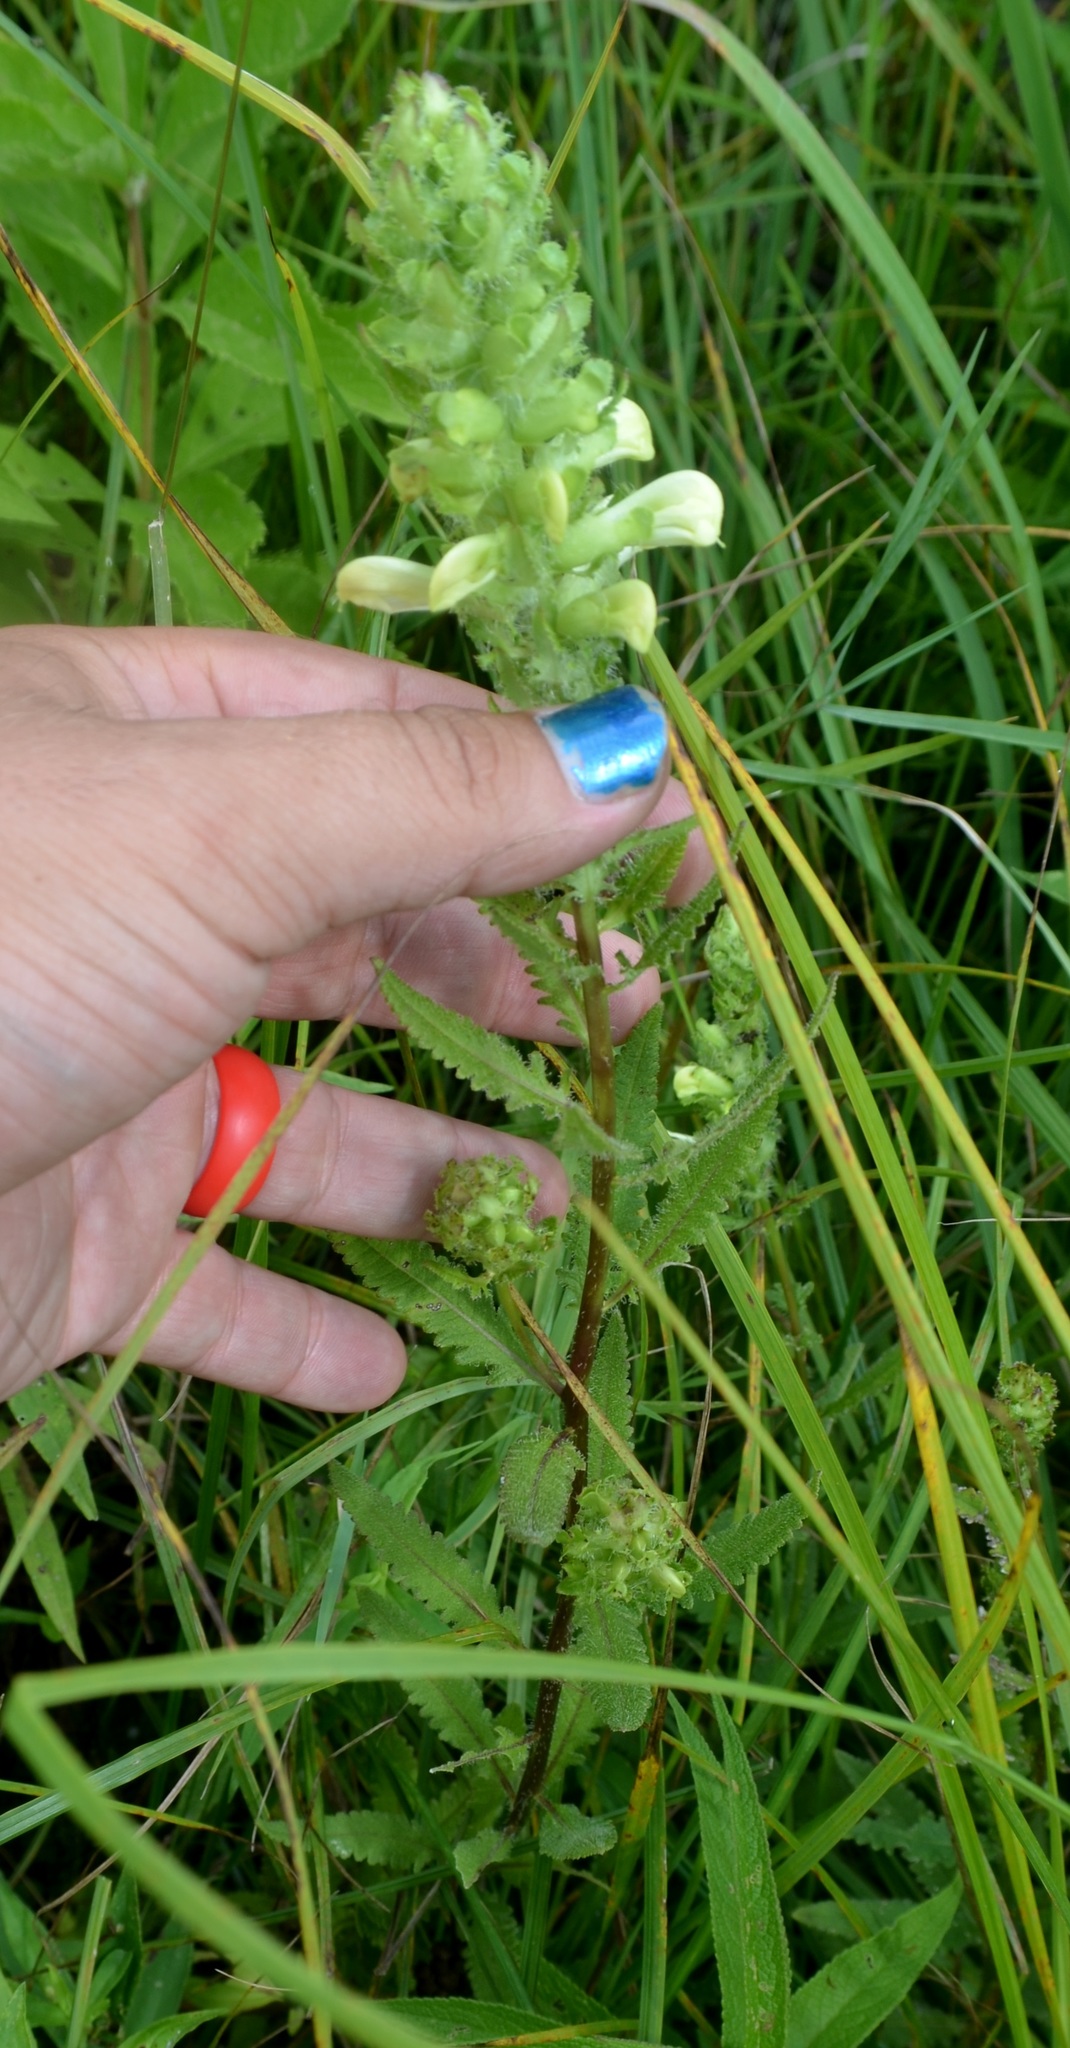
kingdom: Plantae
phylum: Tracheophyta
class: Magnoliopsida
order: Lamiales
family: Orobanchaceae
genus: Pedicularis
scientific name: Pedicularis lanceolata
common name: Swamp lousewort
